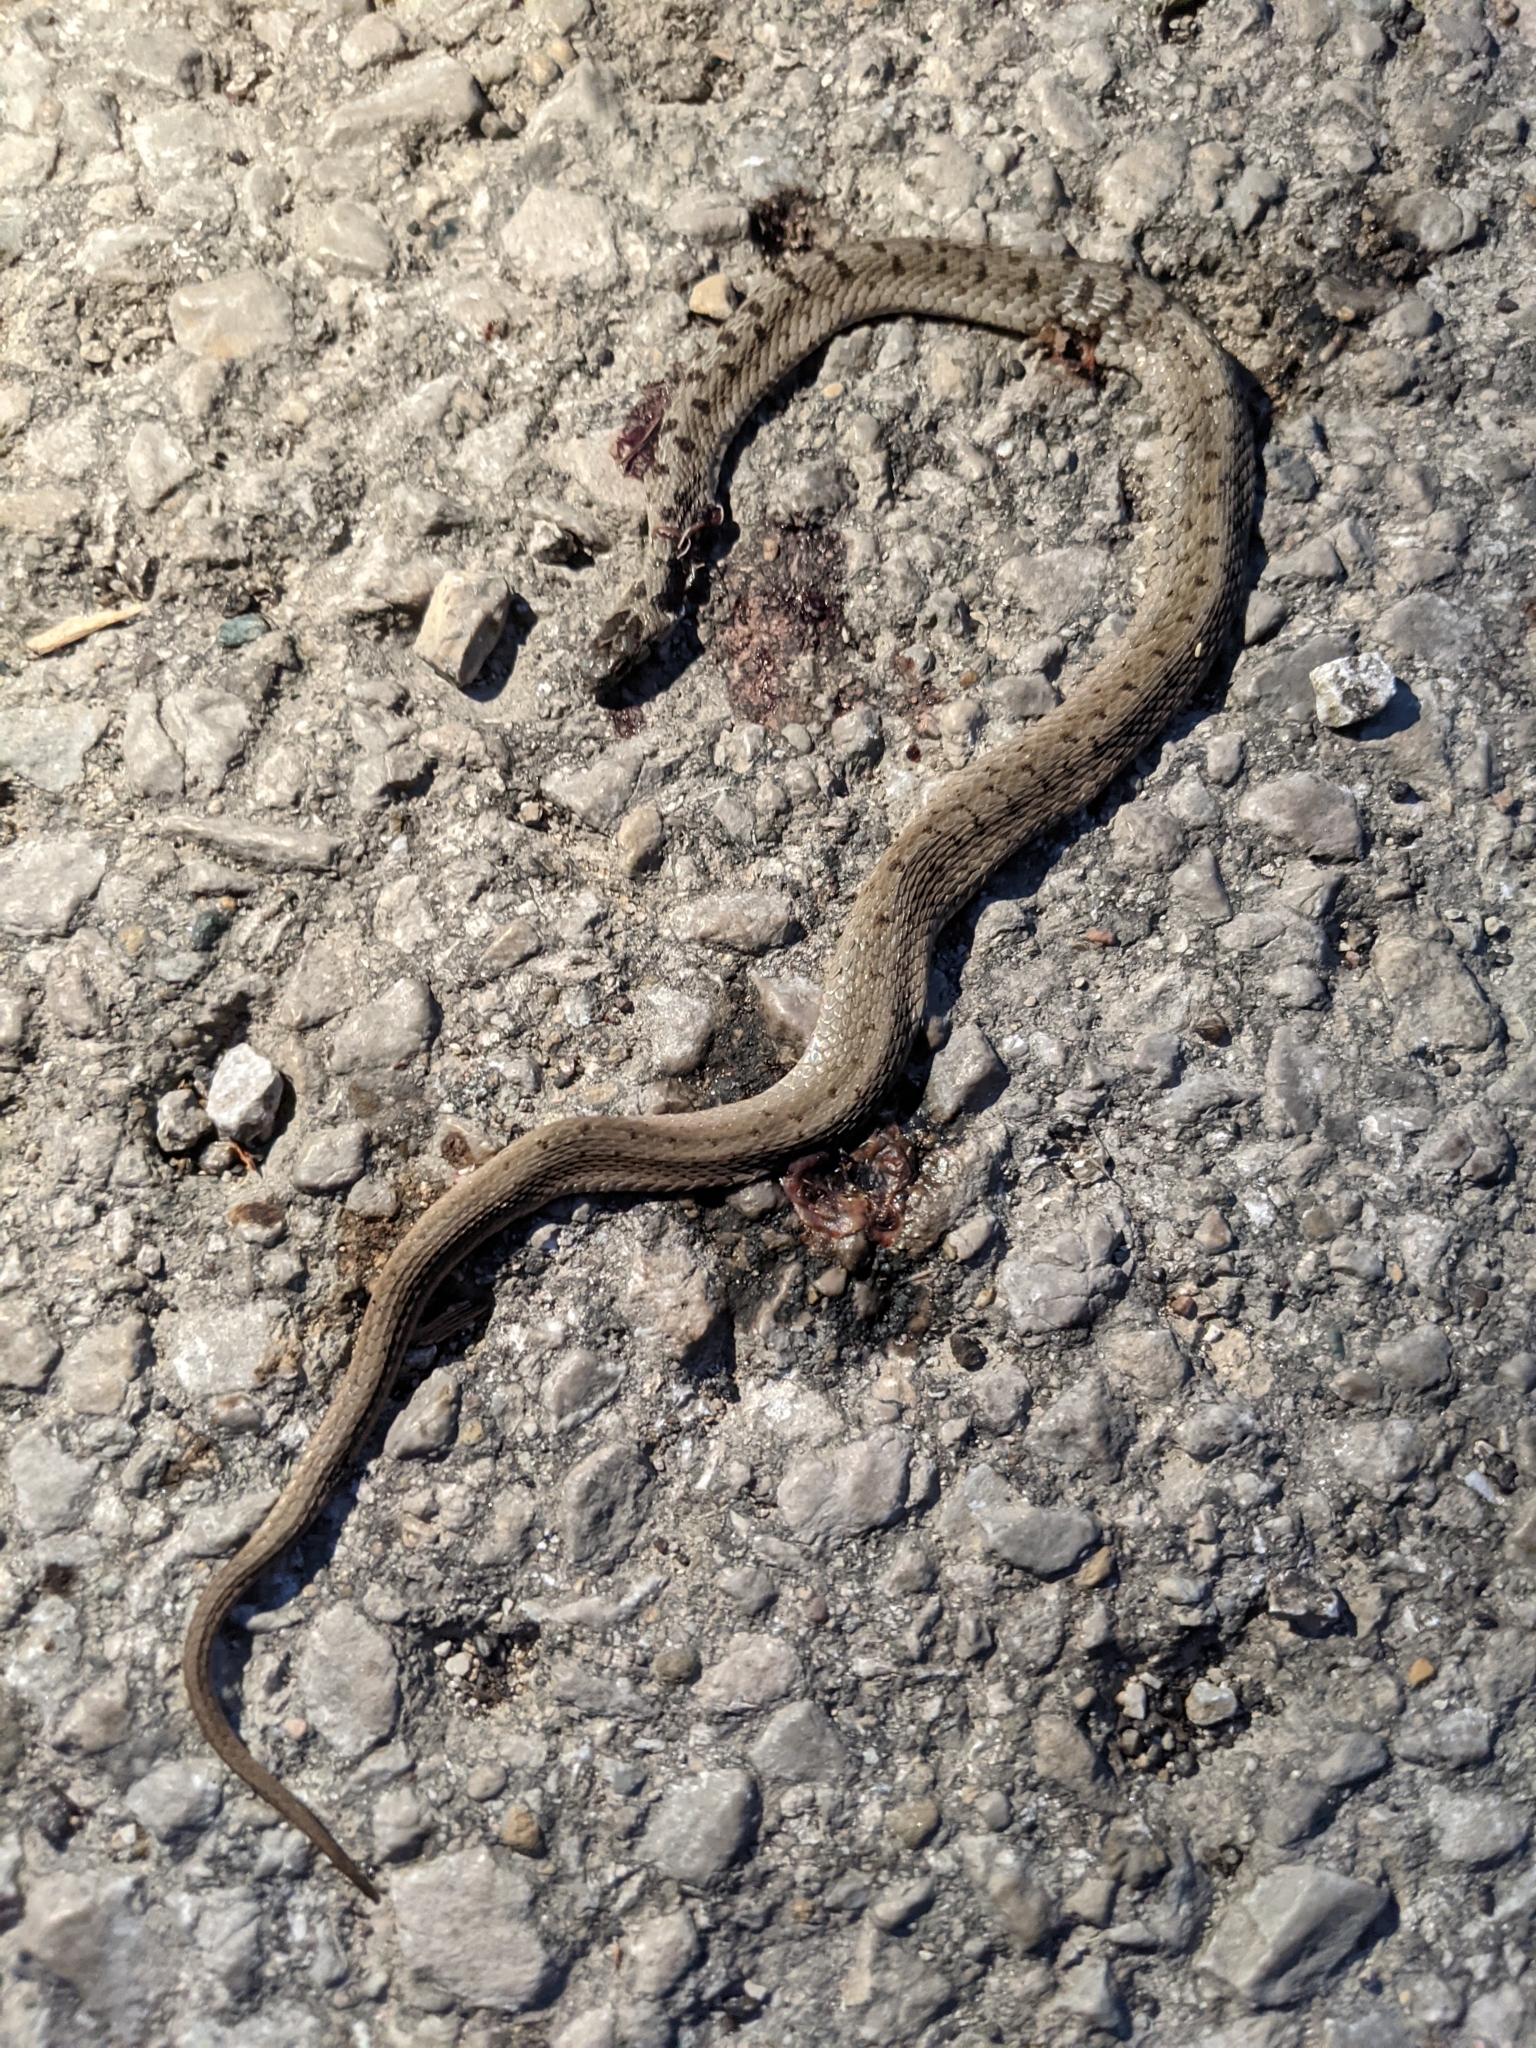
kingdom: Animalia
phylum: Chordata
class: Squamata
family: Colubridae
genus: Storeria
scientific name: Storeria dekayi
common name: (dekay’s) brown snake
